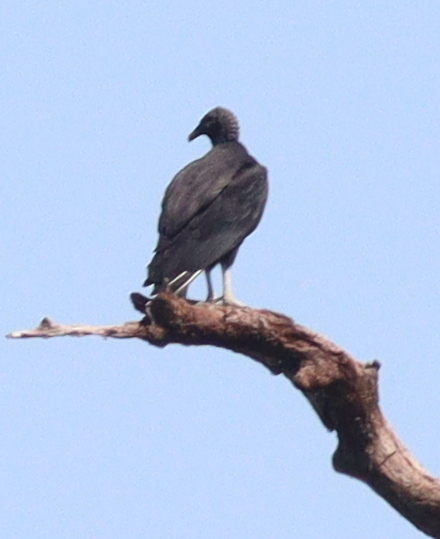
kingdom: Animalia
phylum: Chordata
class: Aves
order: Accipitriformes
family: Cathartidae
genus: Coragyps
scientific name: Coragyps atratus
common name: Black vulture
